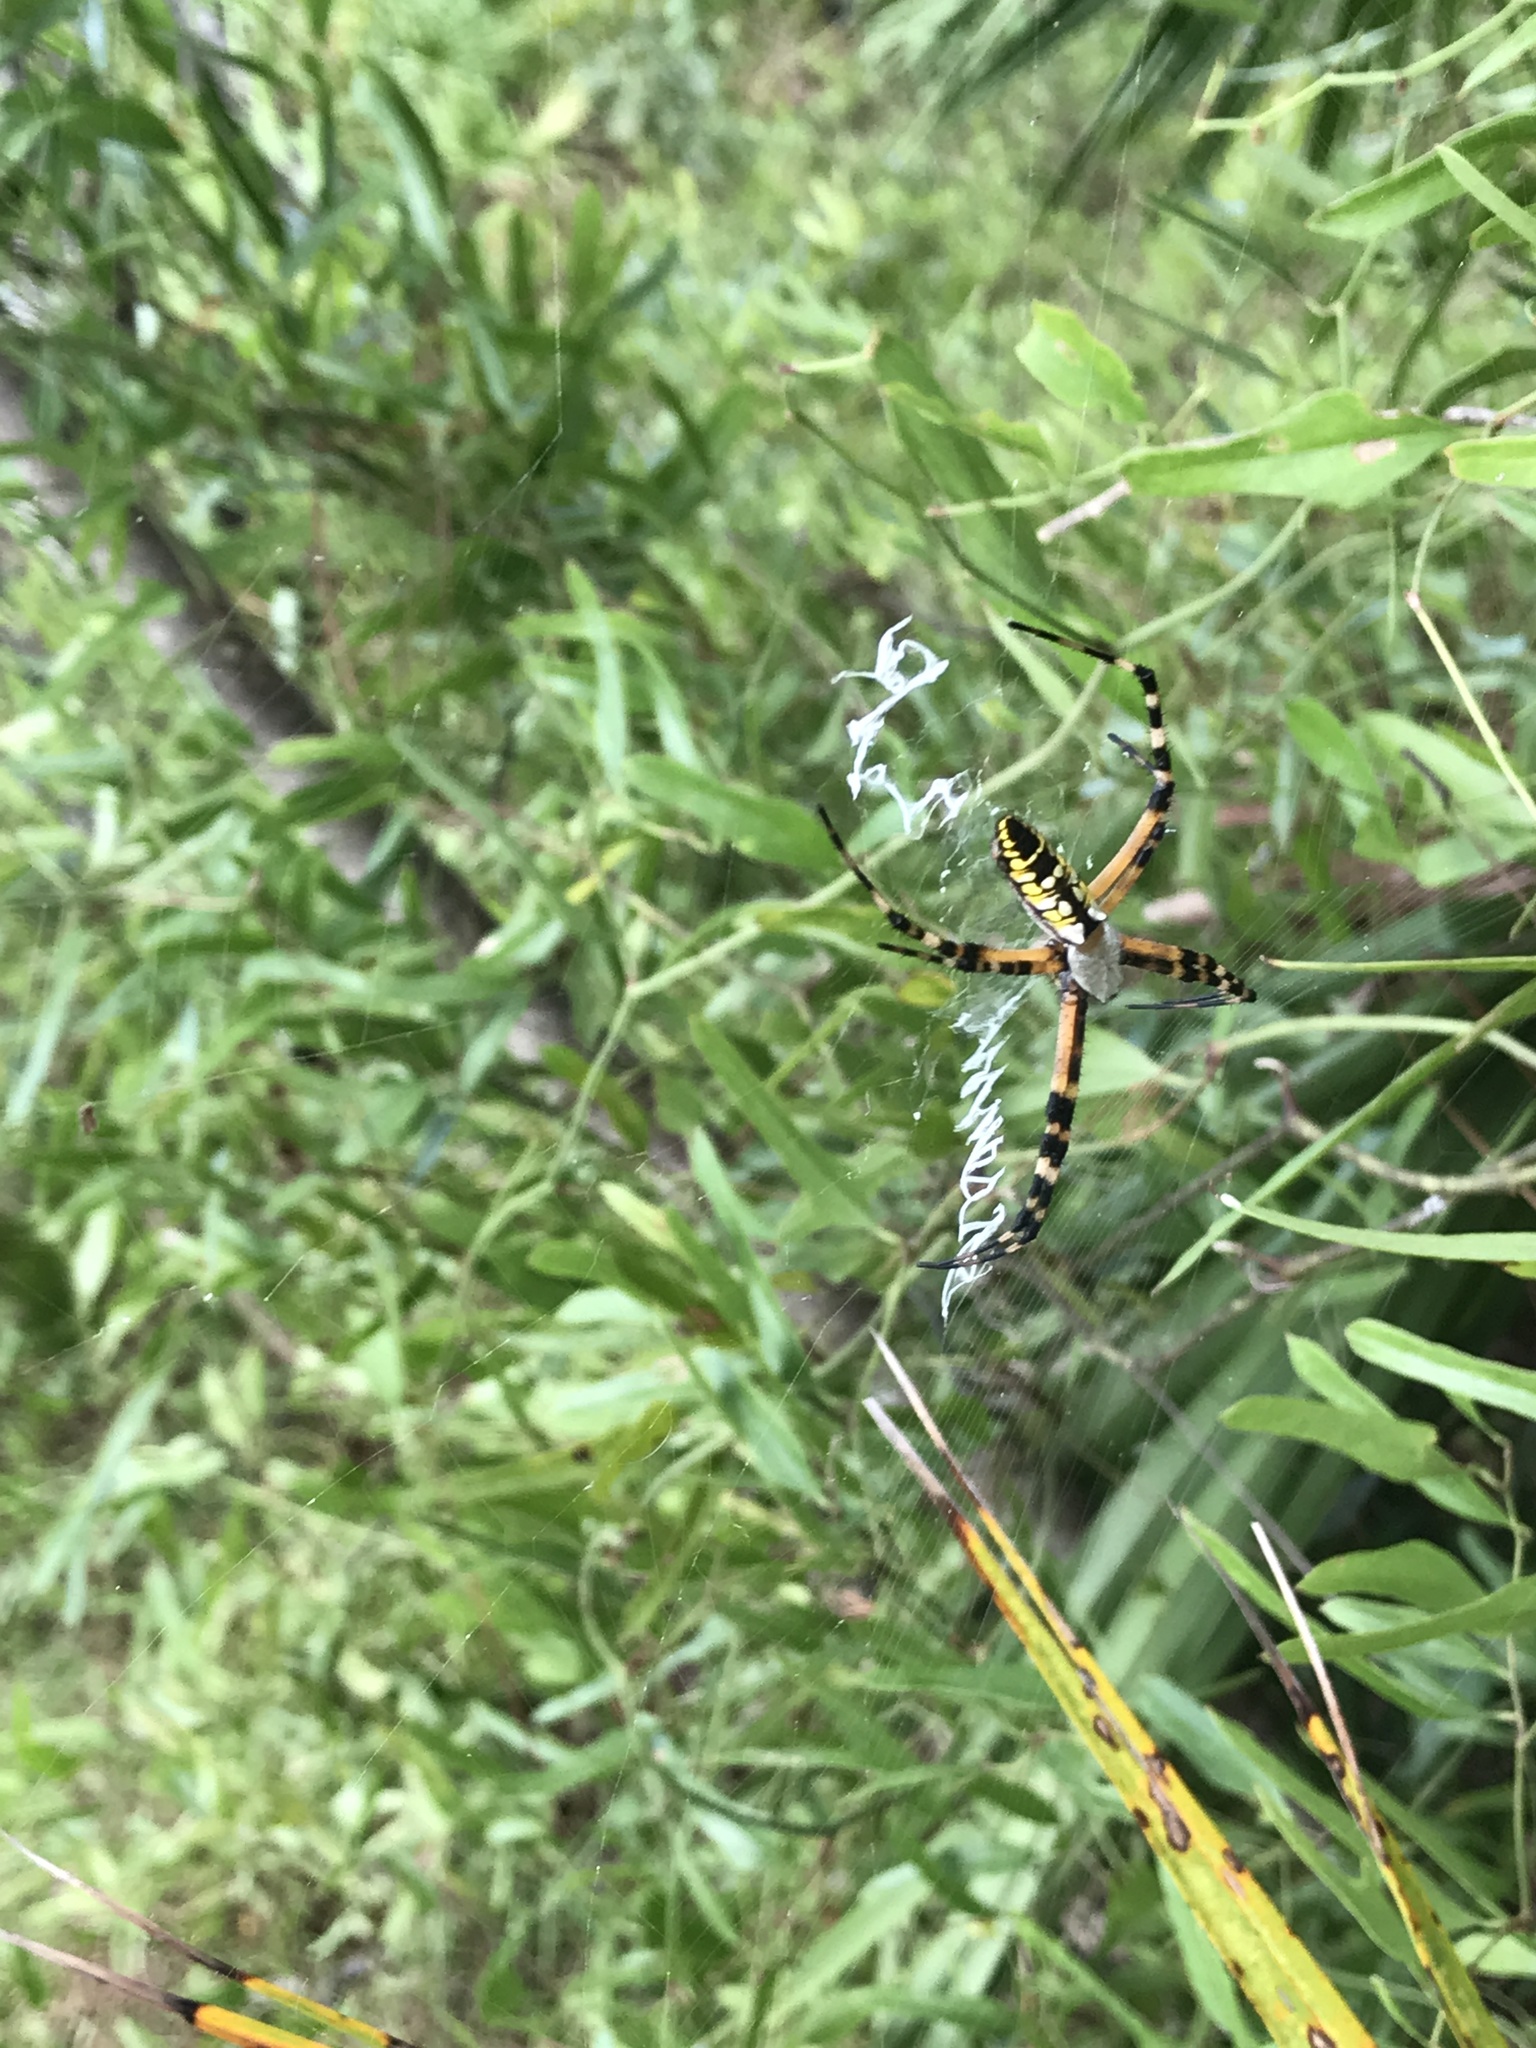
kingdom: Animalia
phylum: Arthropoda
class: Arachnida
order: Araneae
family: Araneidae
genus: Argiope
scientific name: Argiope aurantia
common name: Orb weavers
